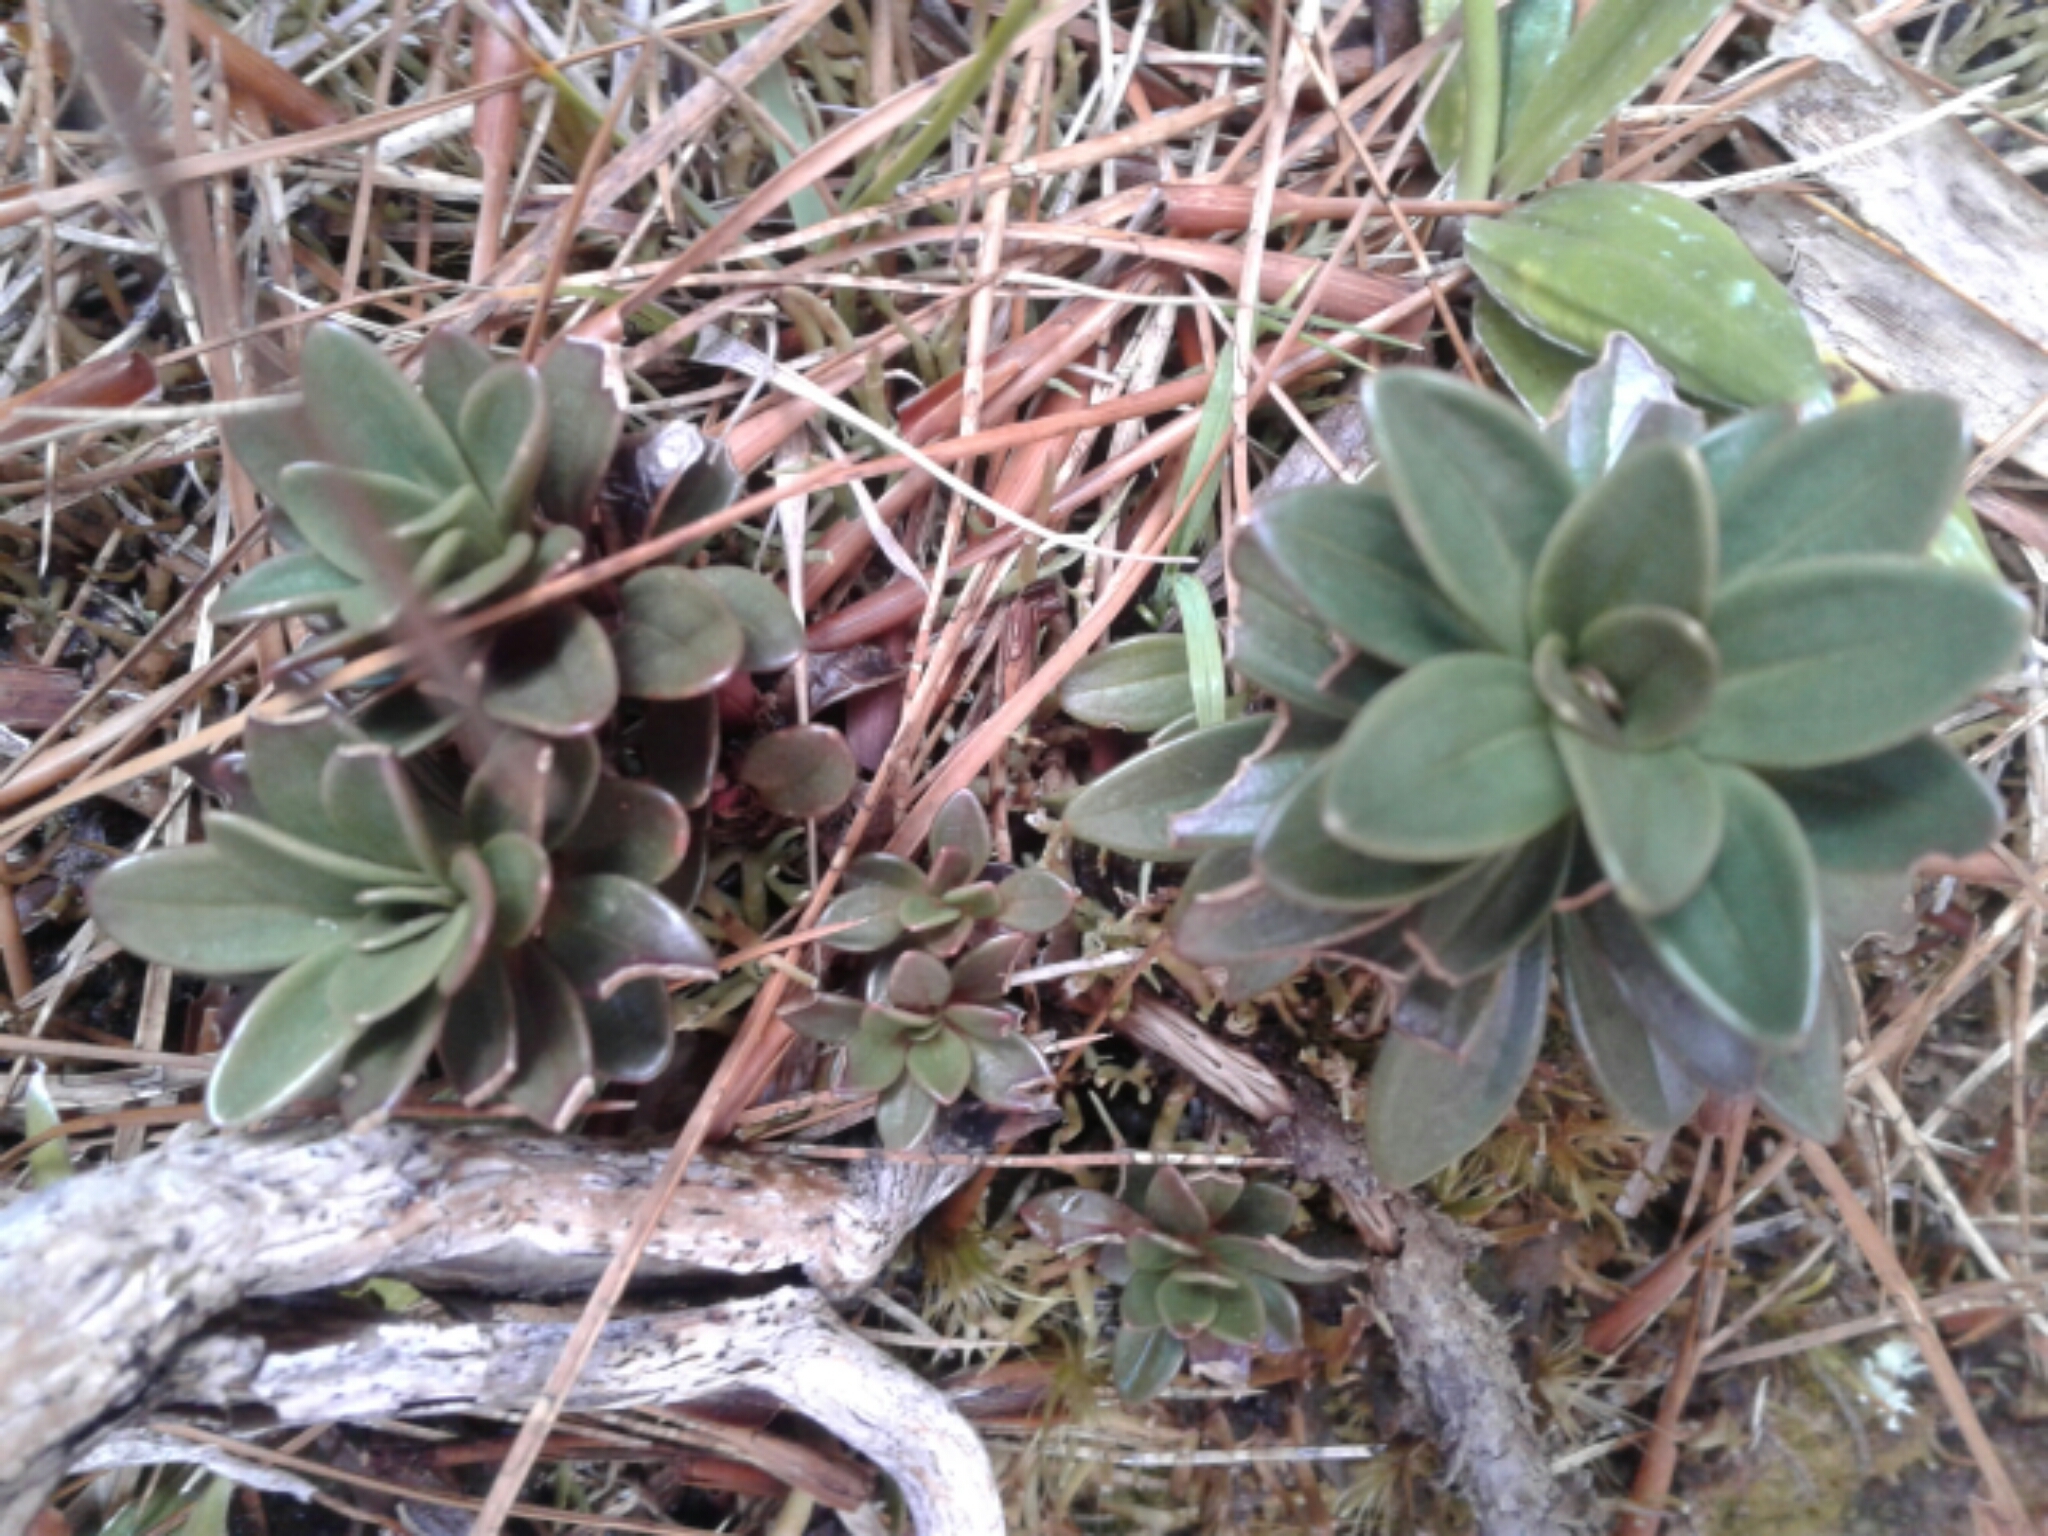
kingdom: Plantae
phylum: Tracheophyta
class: Magnoliopsida
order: Gentianales
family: Gentianaceae
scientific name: Gentianaceae
